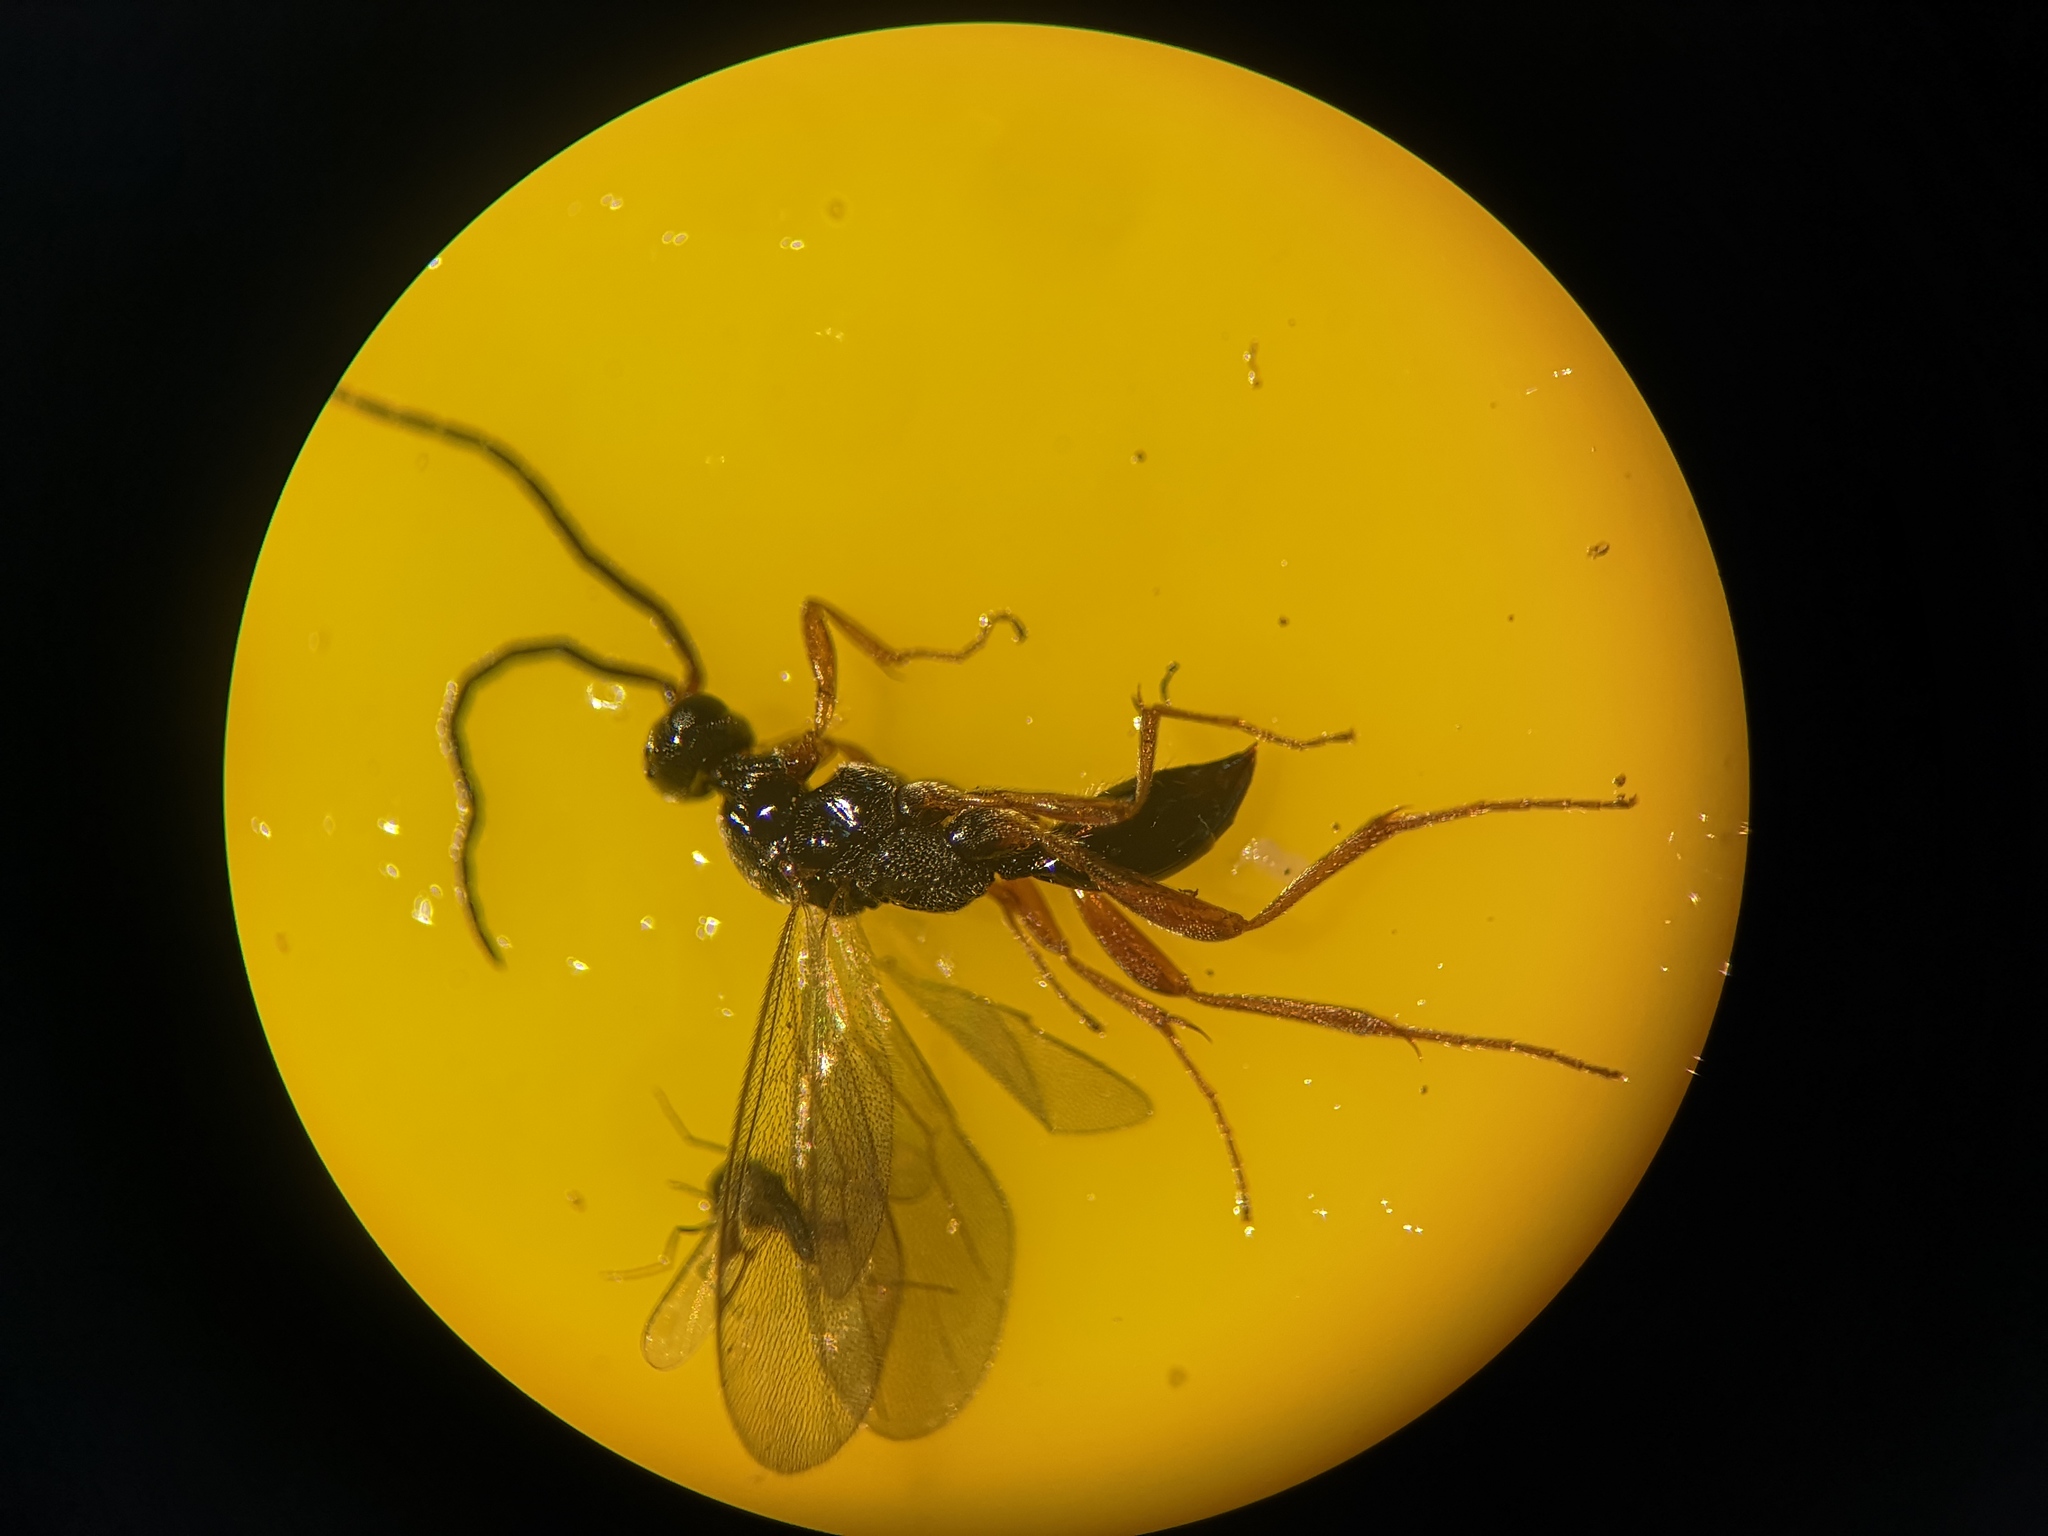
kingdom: Animalia
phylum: Arthropoda
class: Insecta
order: Hymenoptera
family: Proctotrupidae
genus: Phaneroserphus
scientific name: Phaneroserphus calcar
